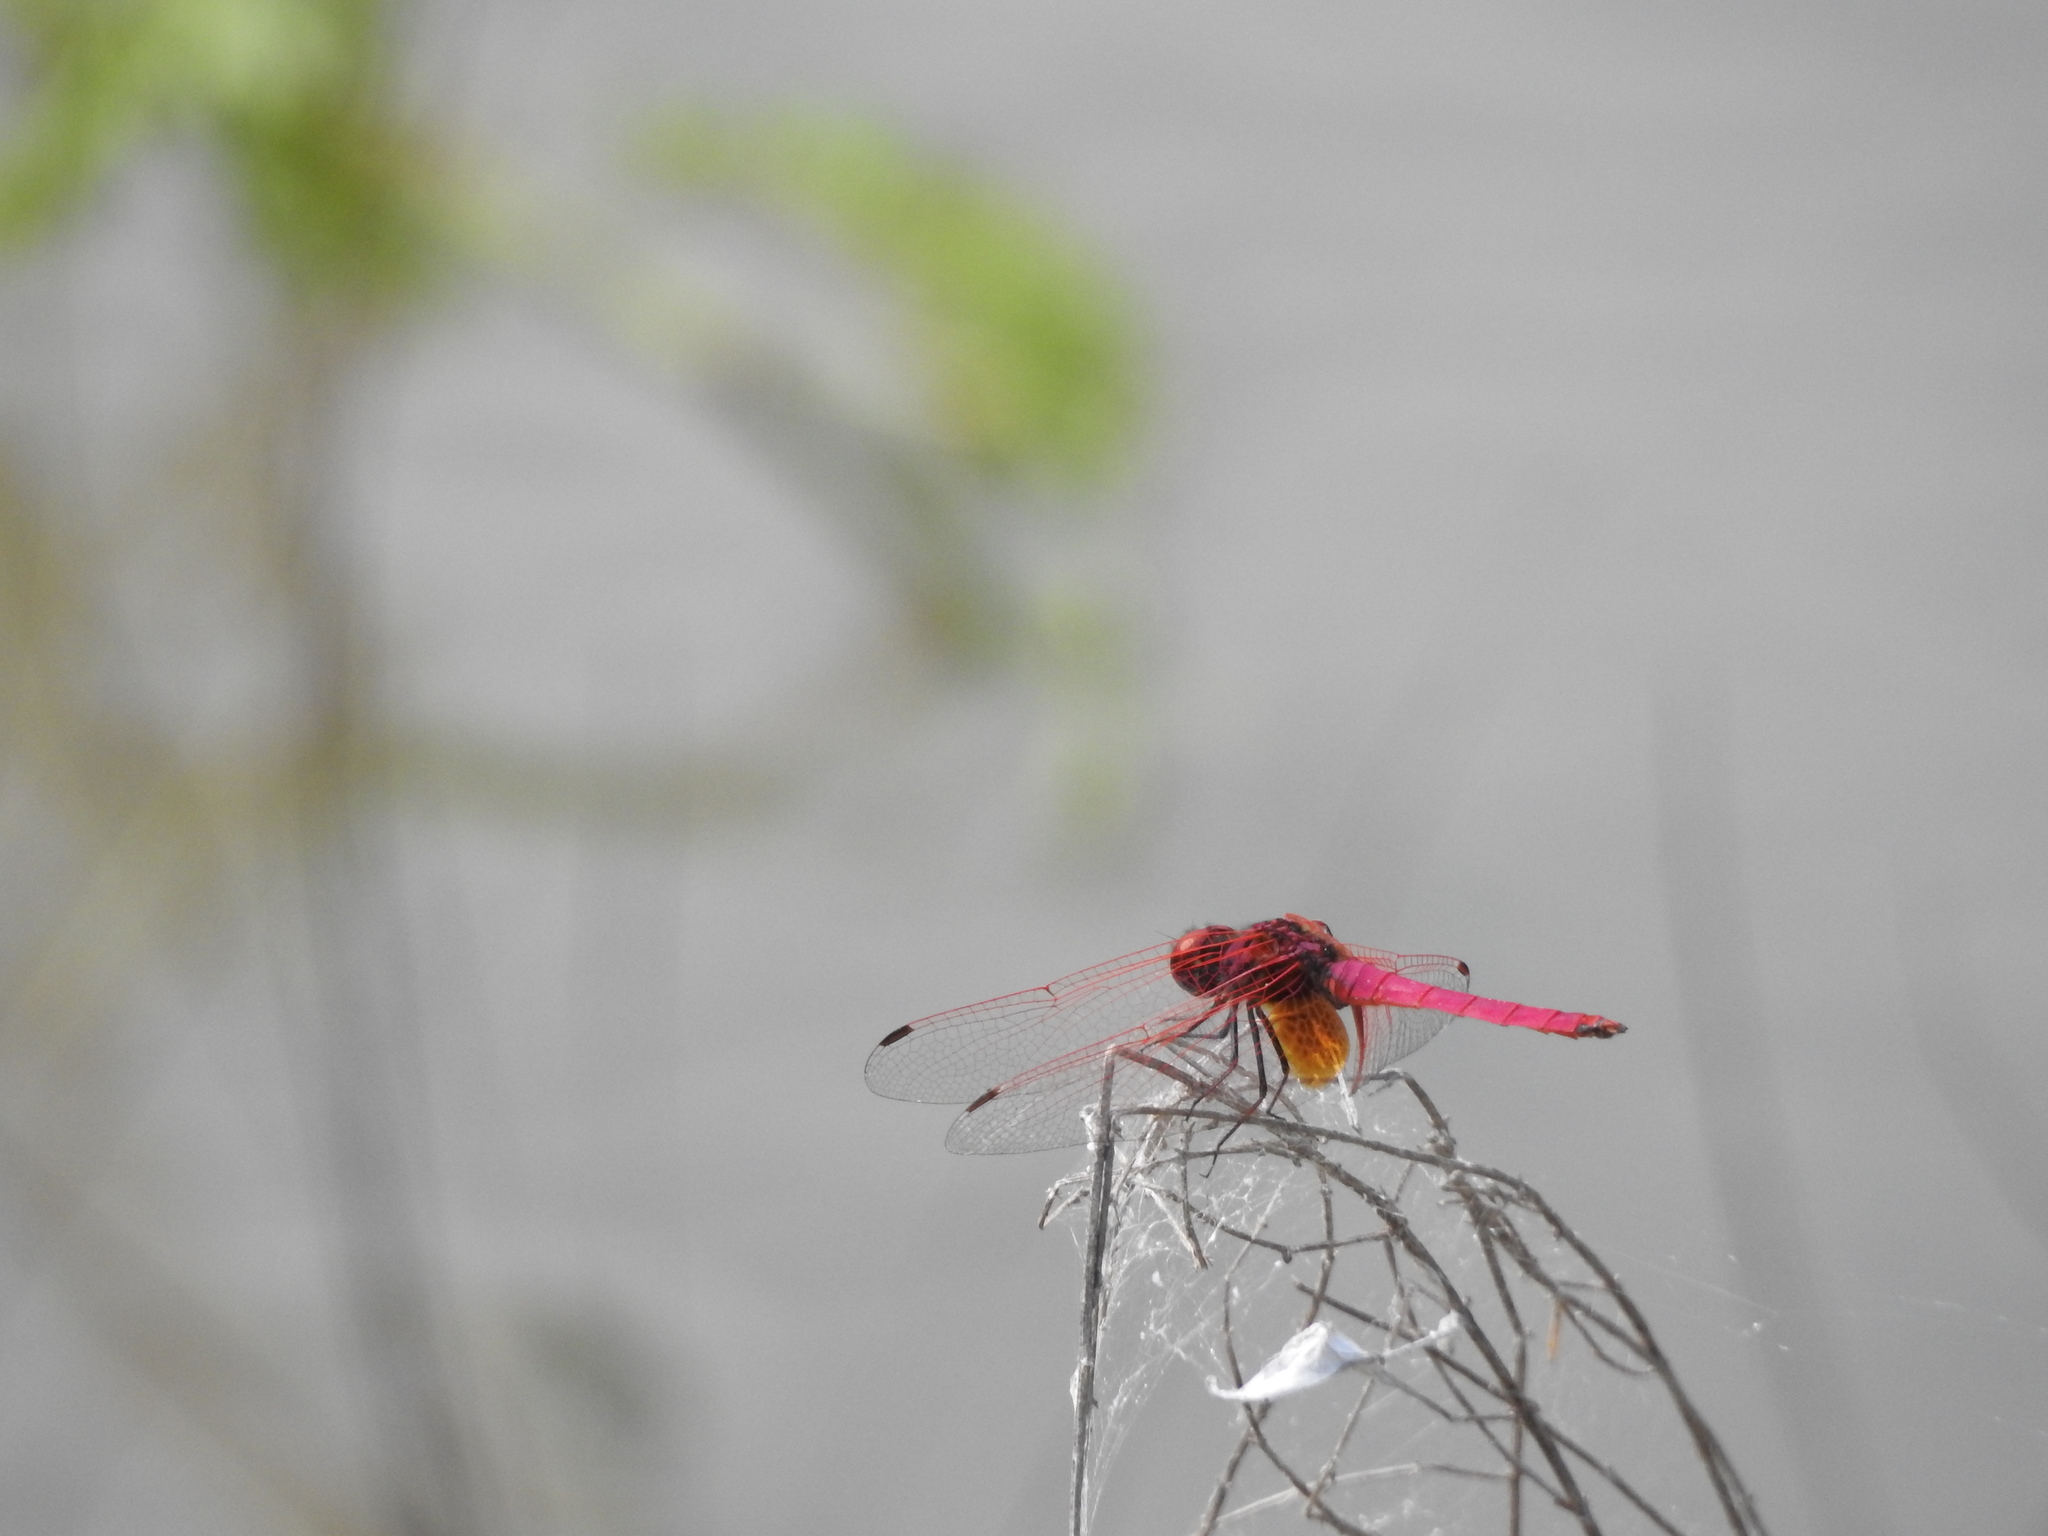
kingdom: Animalia
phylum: Arthropoda
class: Insecta
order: Odonata
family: Libellulidae
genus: Trithemis
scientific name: Trithemis aurora
